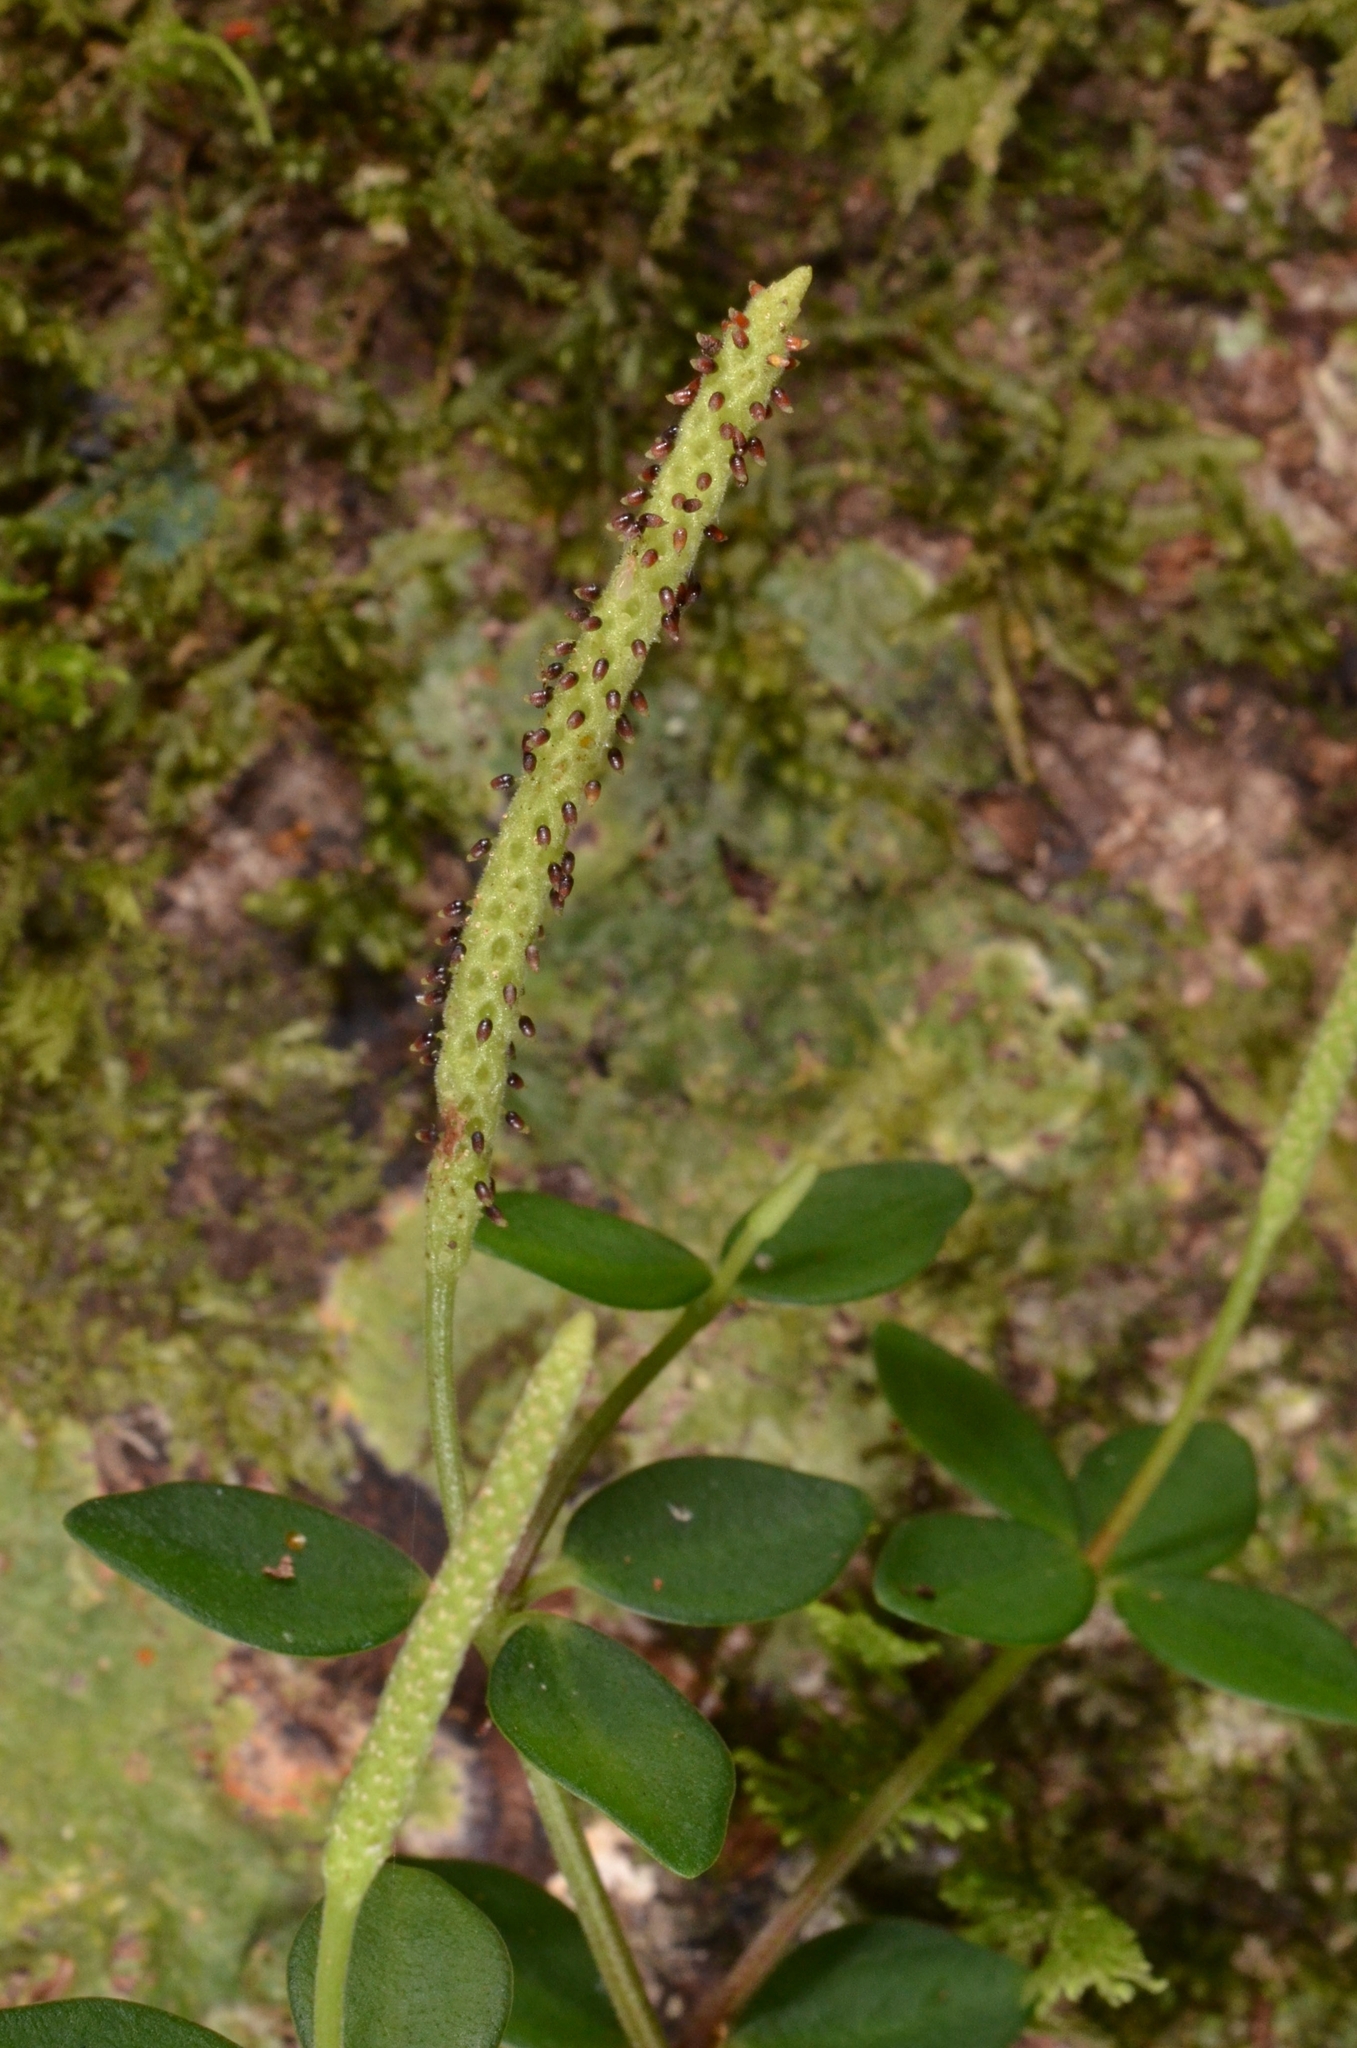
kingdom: Plantae
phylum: Tracheophyta
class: Magnoliopsida
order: Piperales
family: Piperaceae
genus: Peperomia
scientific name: Peperomia tetraphylla
